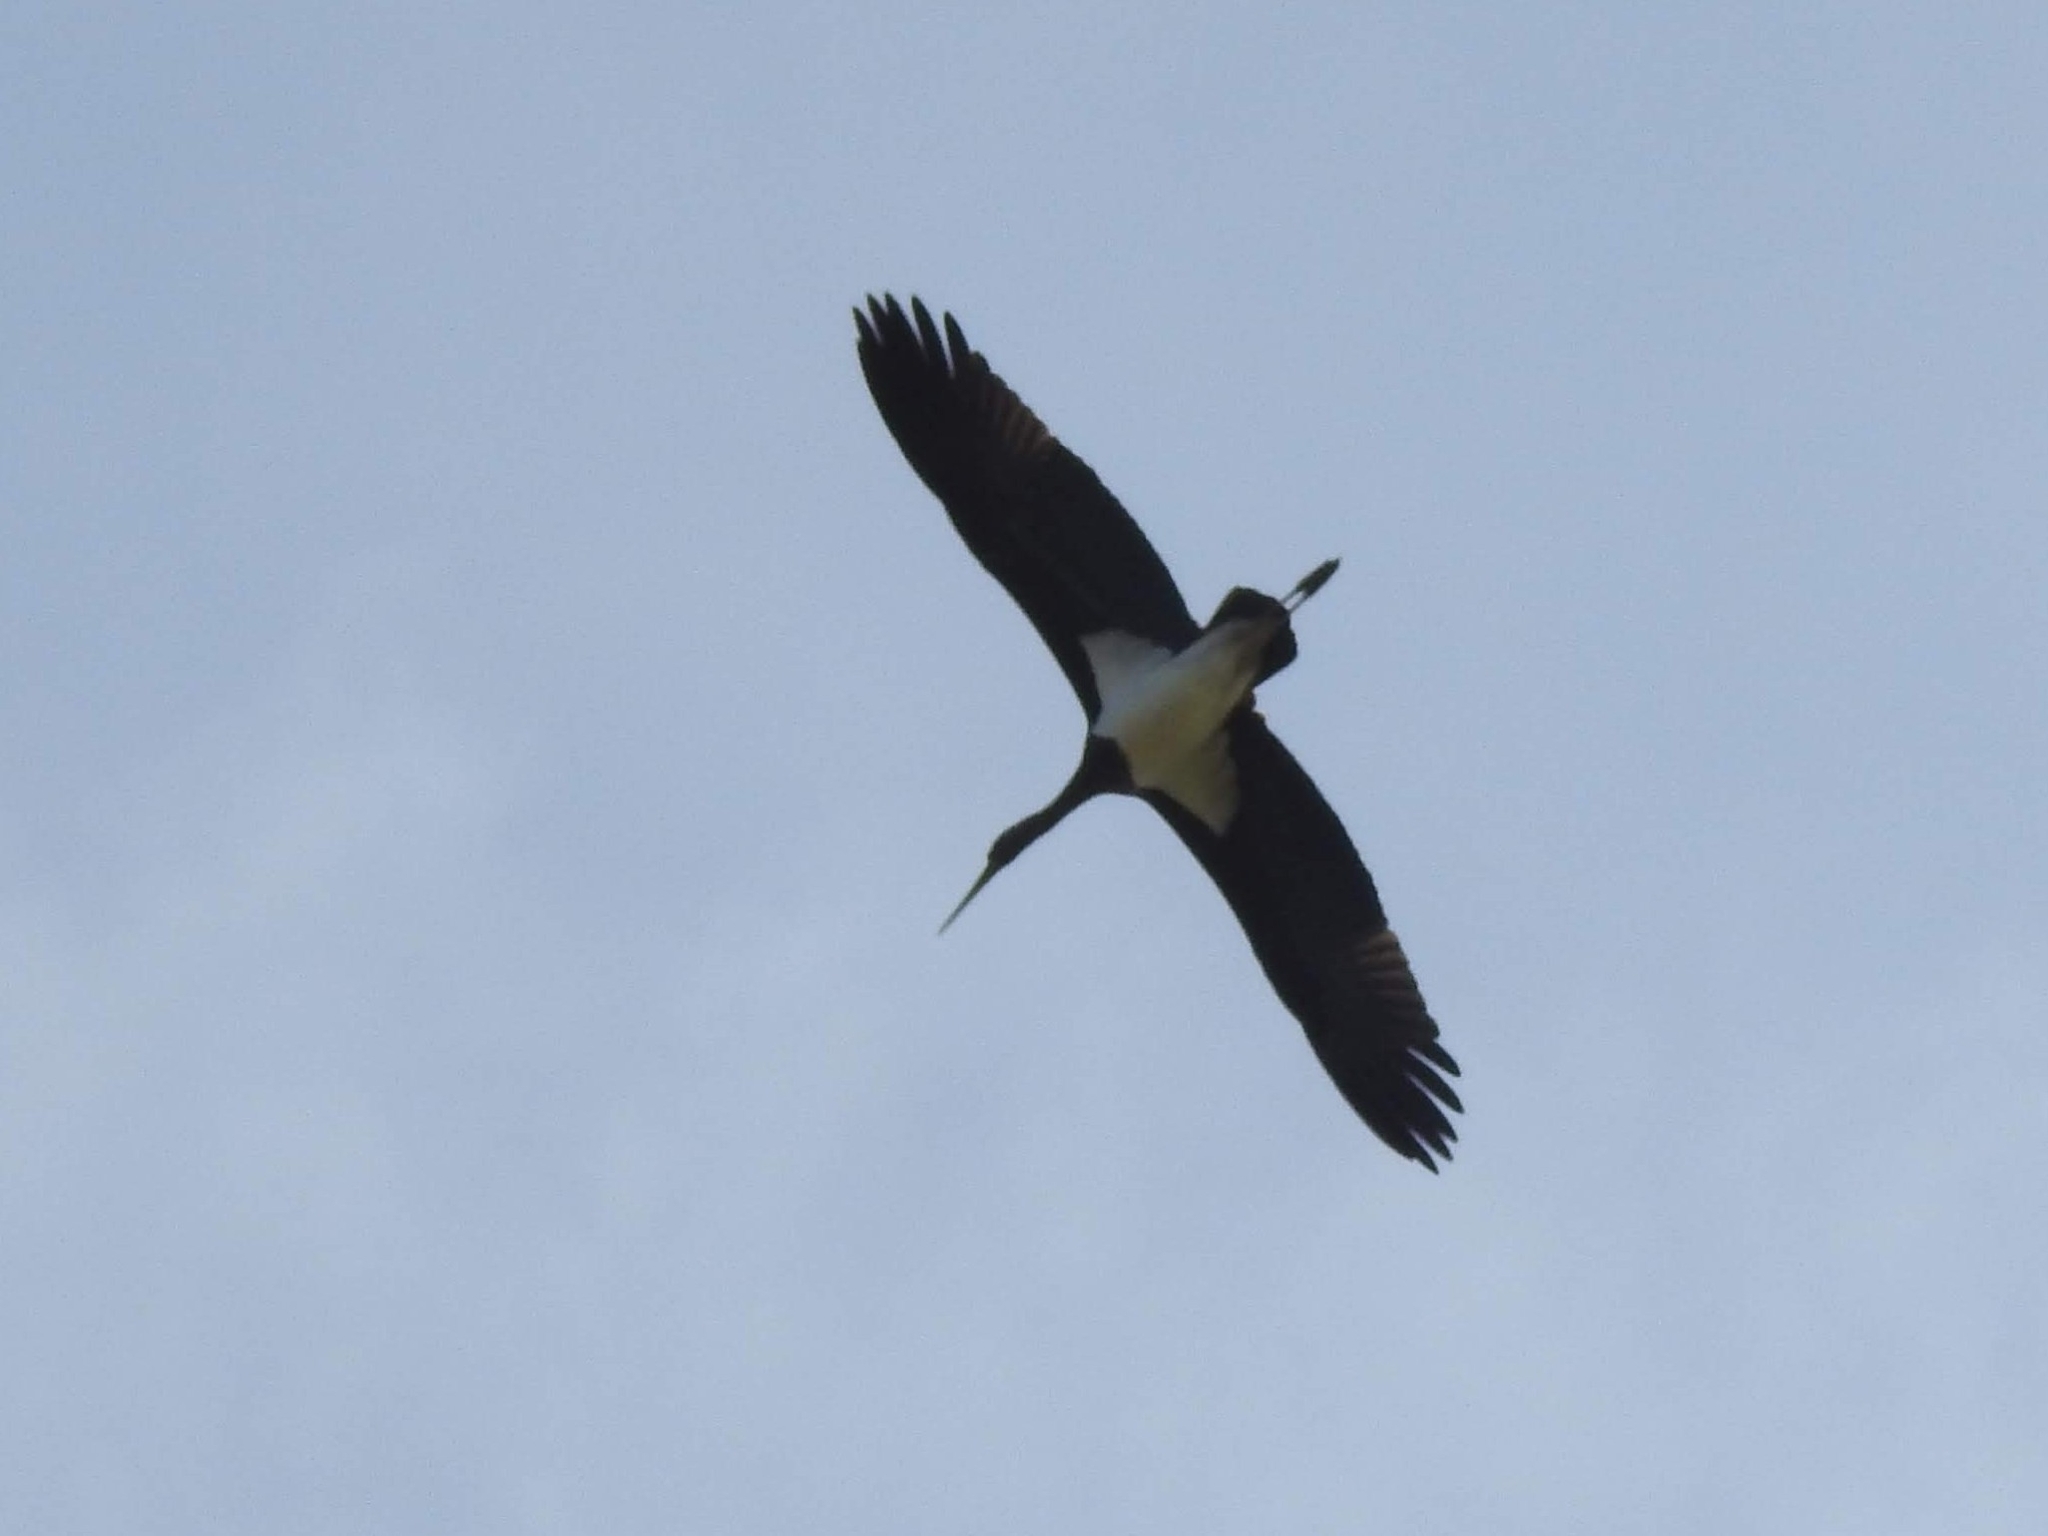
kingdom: Animalia
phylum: Chordata
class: Aves
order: Ciconiiformes
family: Ciconiidae
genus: Ciconia
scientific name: Ciconia nigra
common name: Black stork
